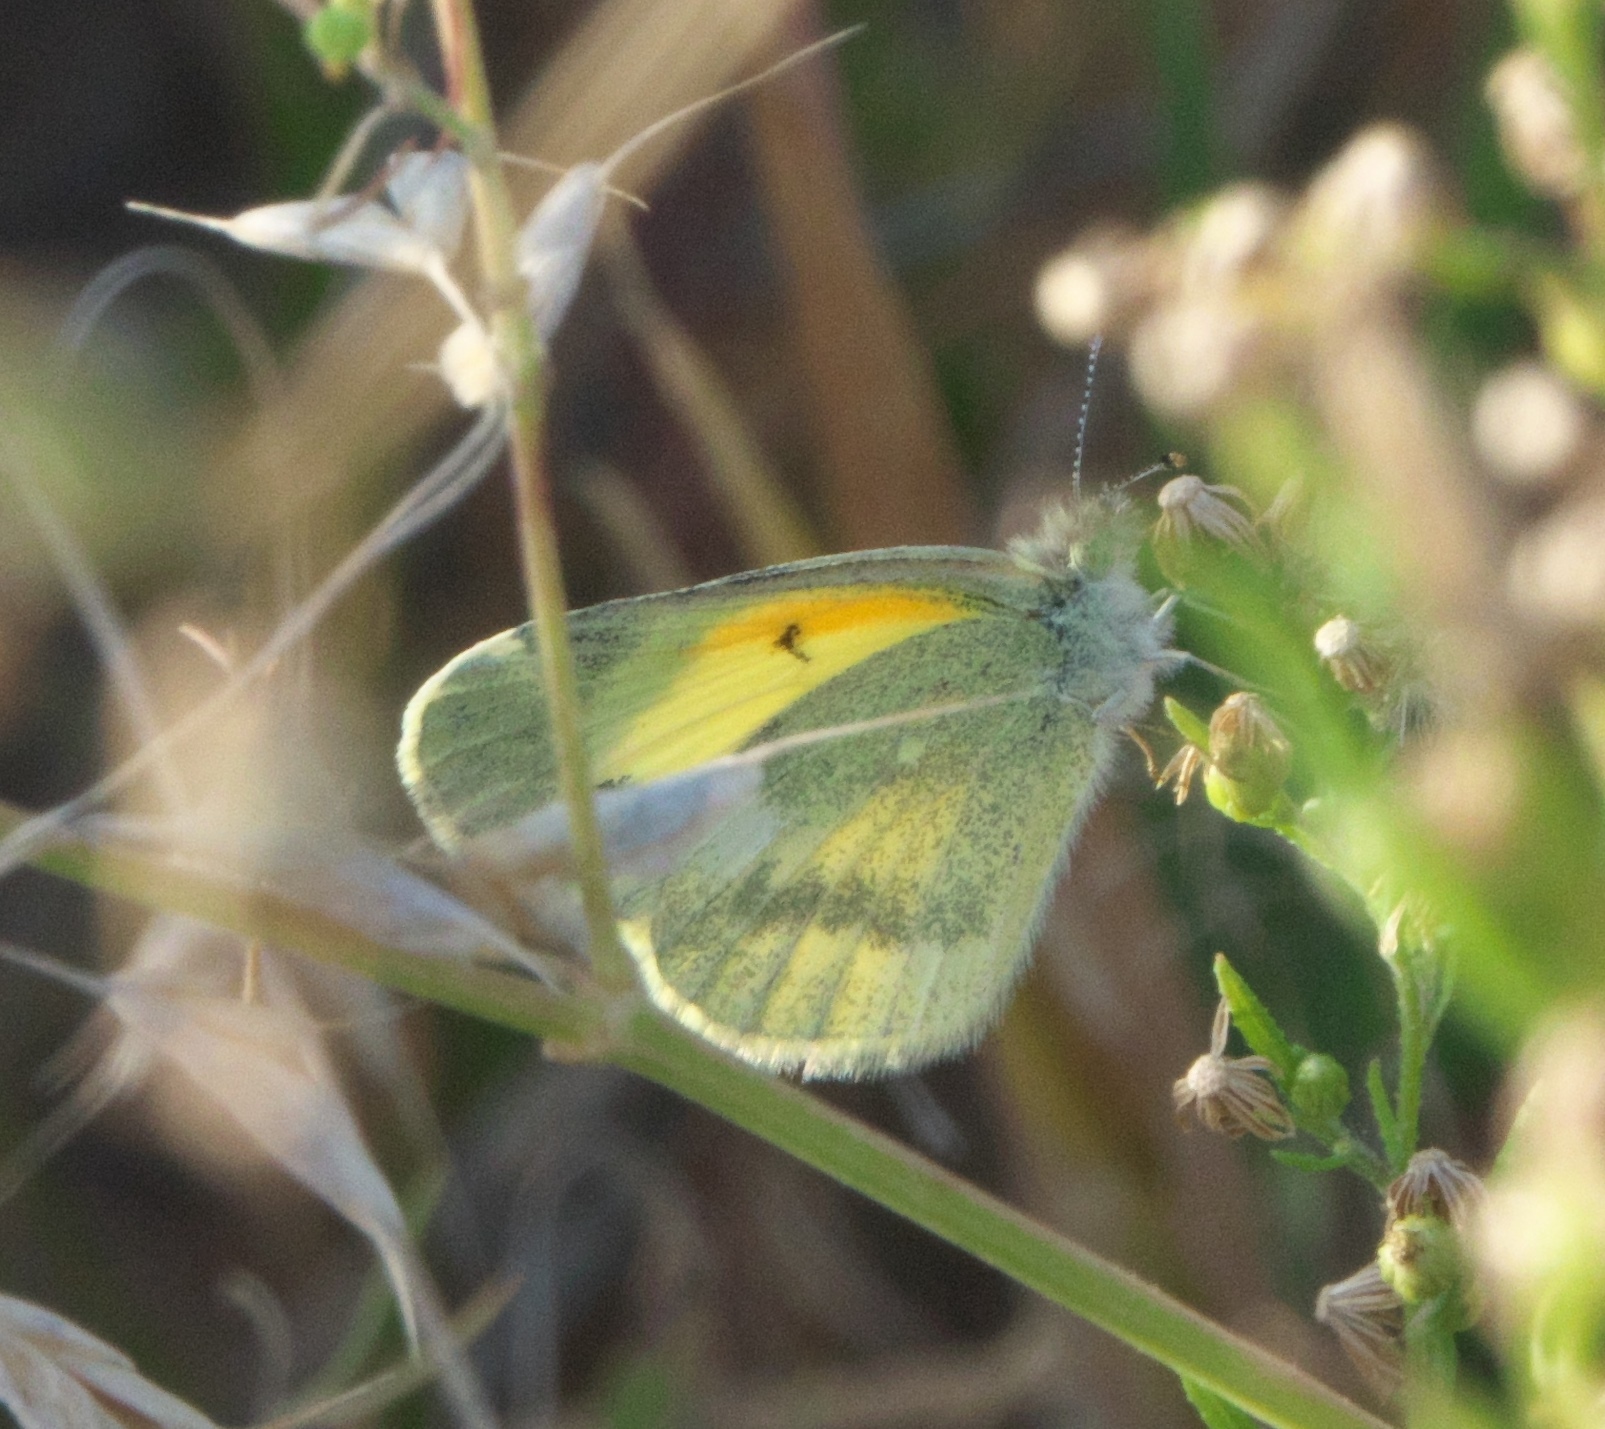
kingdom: Animalia
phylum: Arthropoda
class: Insecta
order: Lepidoptera
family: Pieridae
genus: Nathalis
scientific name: Nathalis iole
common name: Dainty sulphur
